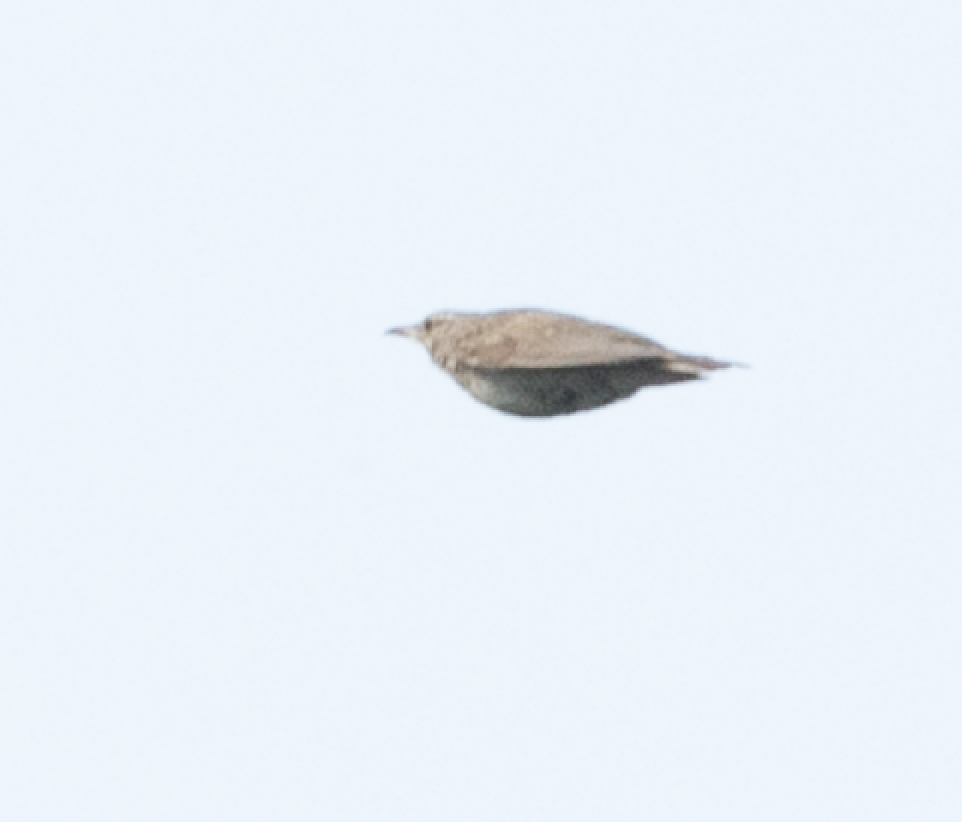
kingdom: Animalia
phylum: Chordata
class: Aves
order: Passeriformes
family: Alaudidae
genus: Galerida
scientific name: Galerida cristata
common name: Crested lark
